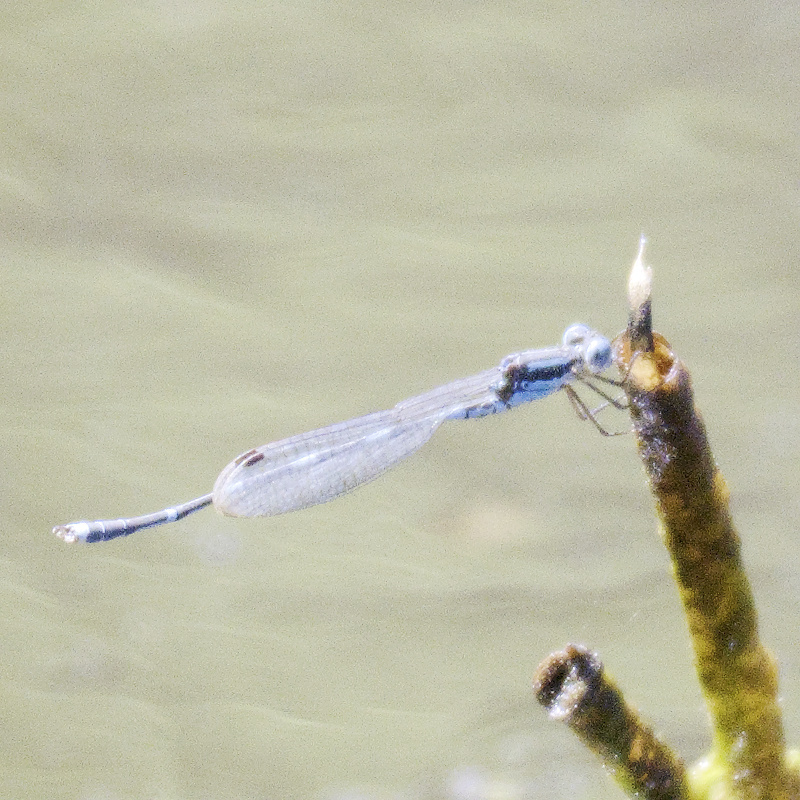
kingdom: Animalia
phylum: Arthropoda
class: Insecta
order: Odonata
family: Lestidae
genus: Austrolestes
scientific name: Austrolestes leda
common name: Wandering ringtail
